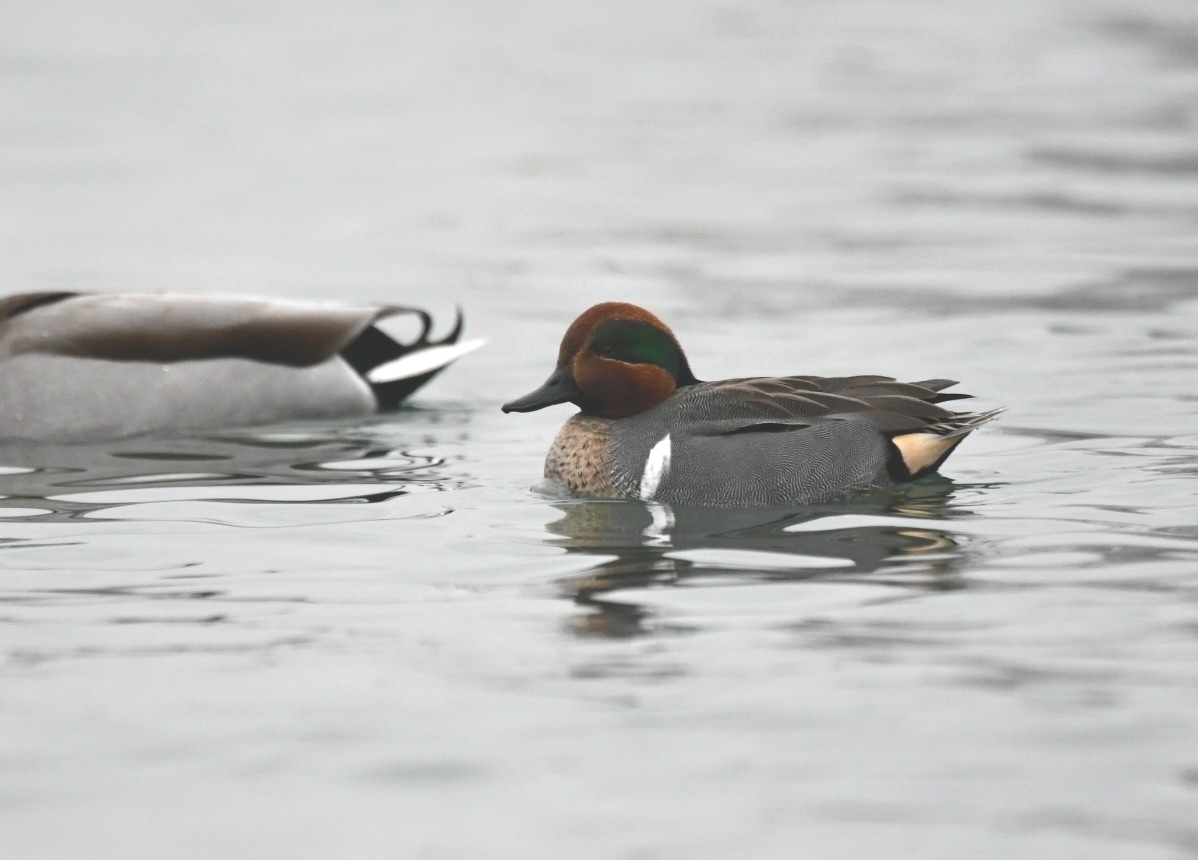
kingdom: Animalia
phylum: Chordata
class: Aves
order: Anseriformes
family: Anatidae
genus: Anas
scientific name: Anas crecca
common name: Eurasian teal
